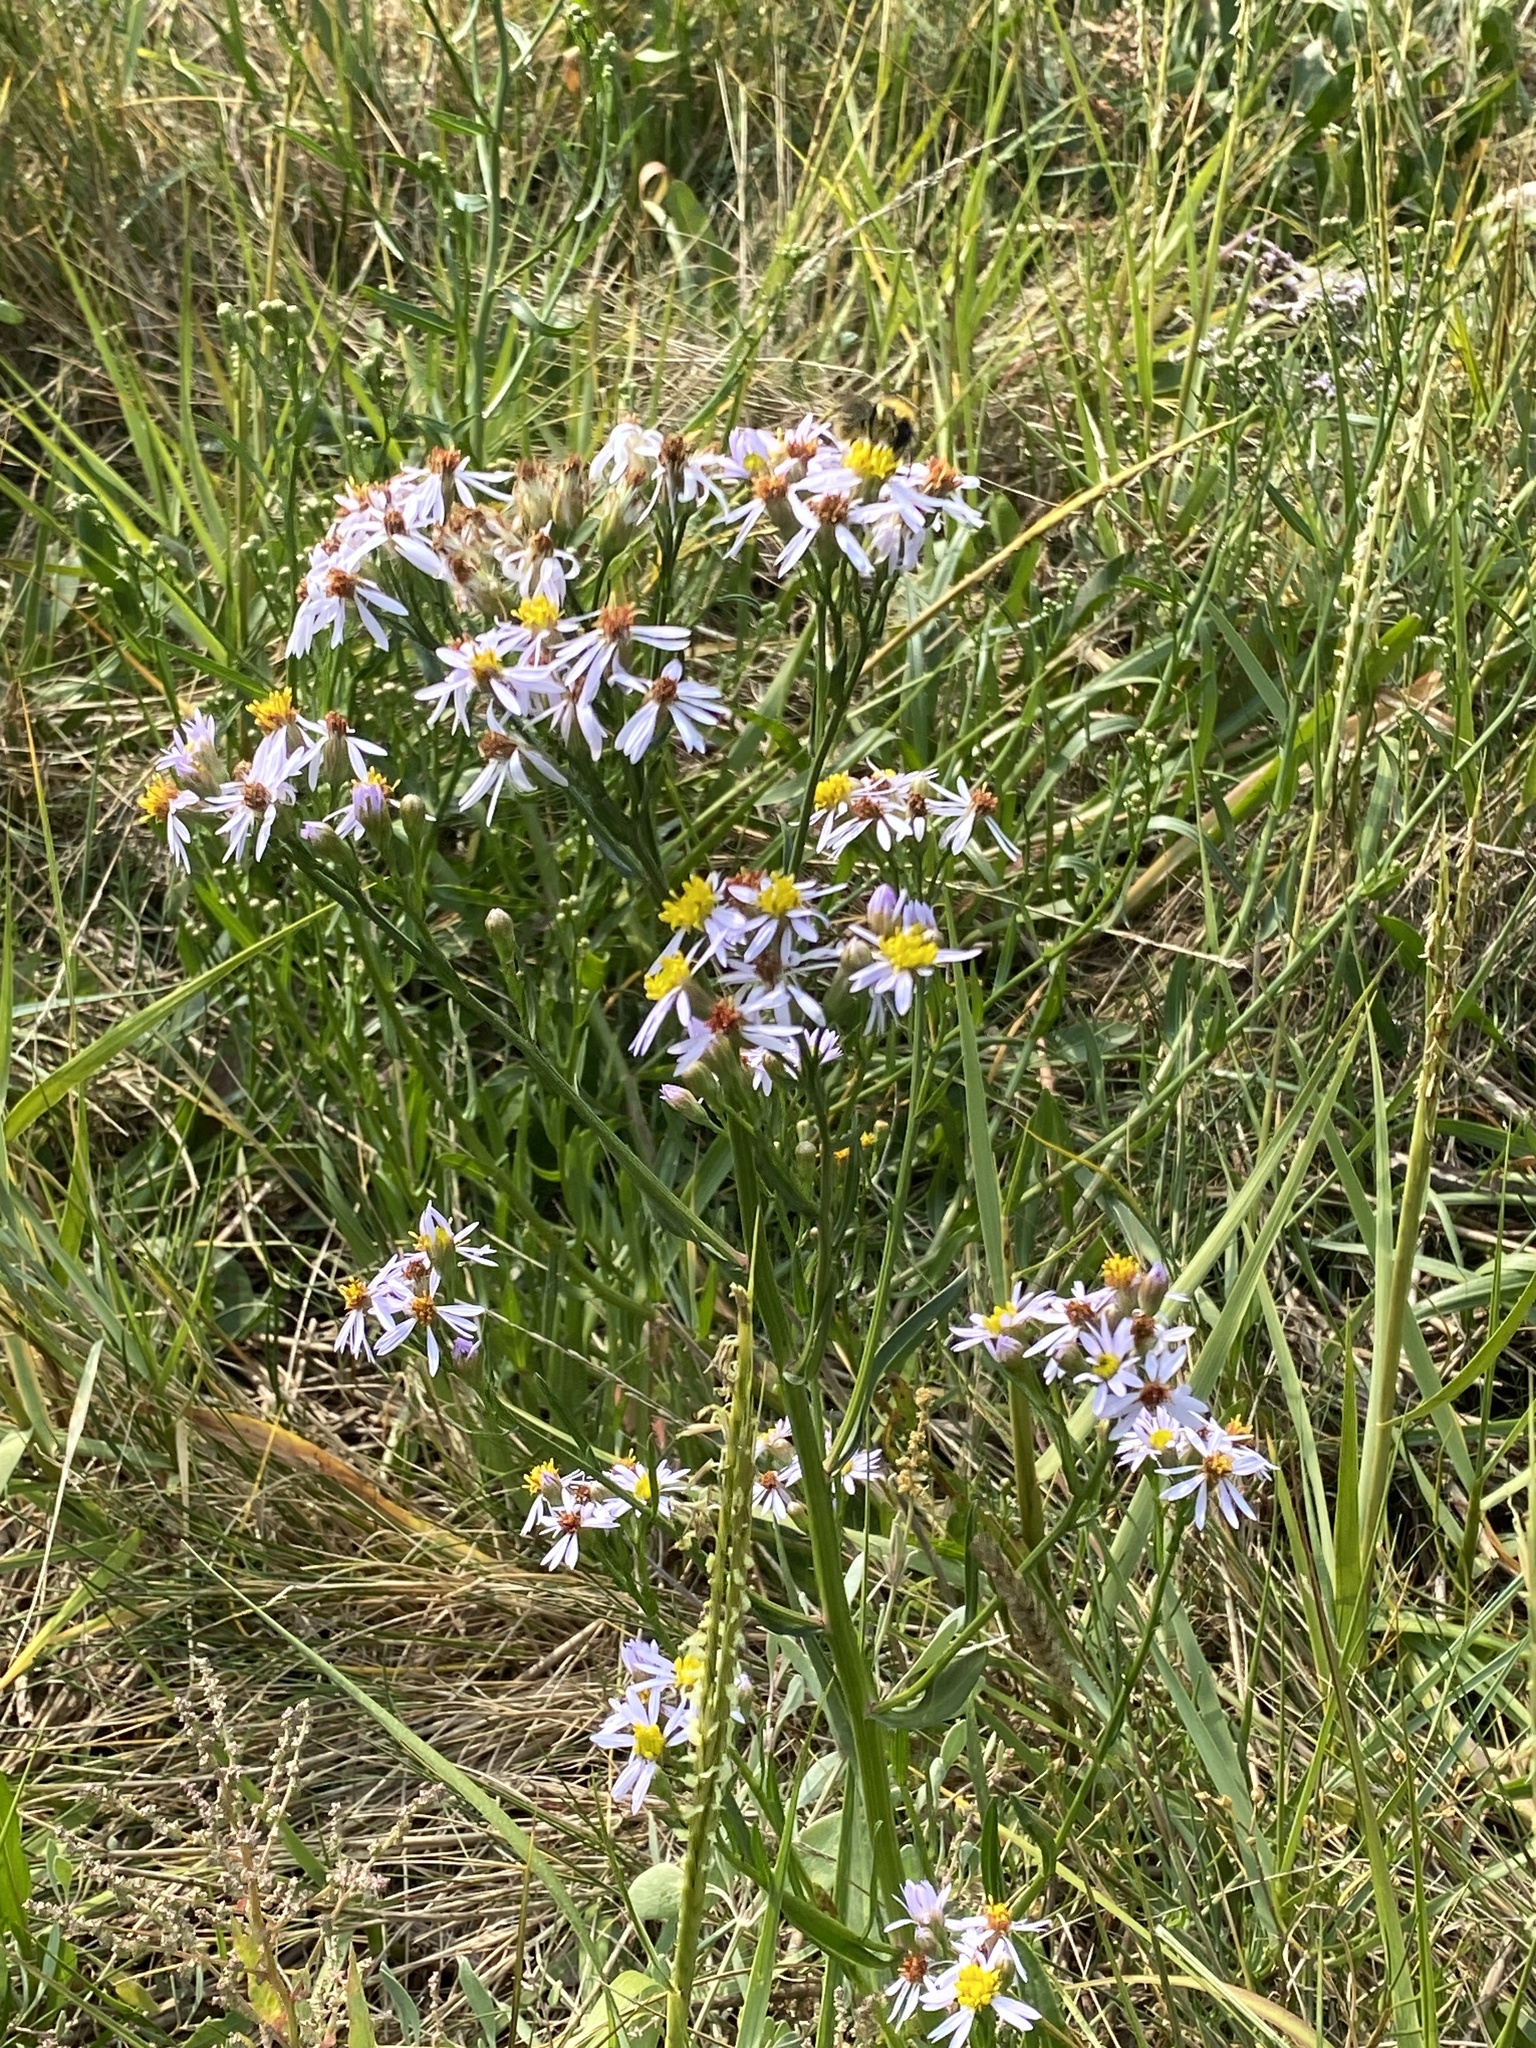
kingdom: Plantae
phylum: Tracheophyta
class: Magnoliopsida
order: Asterales
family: Asteraceae
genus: Tripolium
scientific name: Tripolium pannonicum
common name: Sea aster
